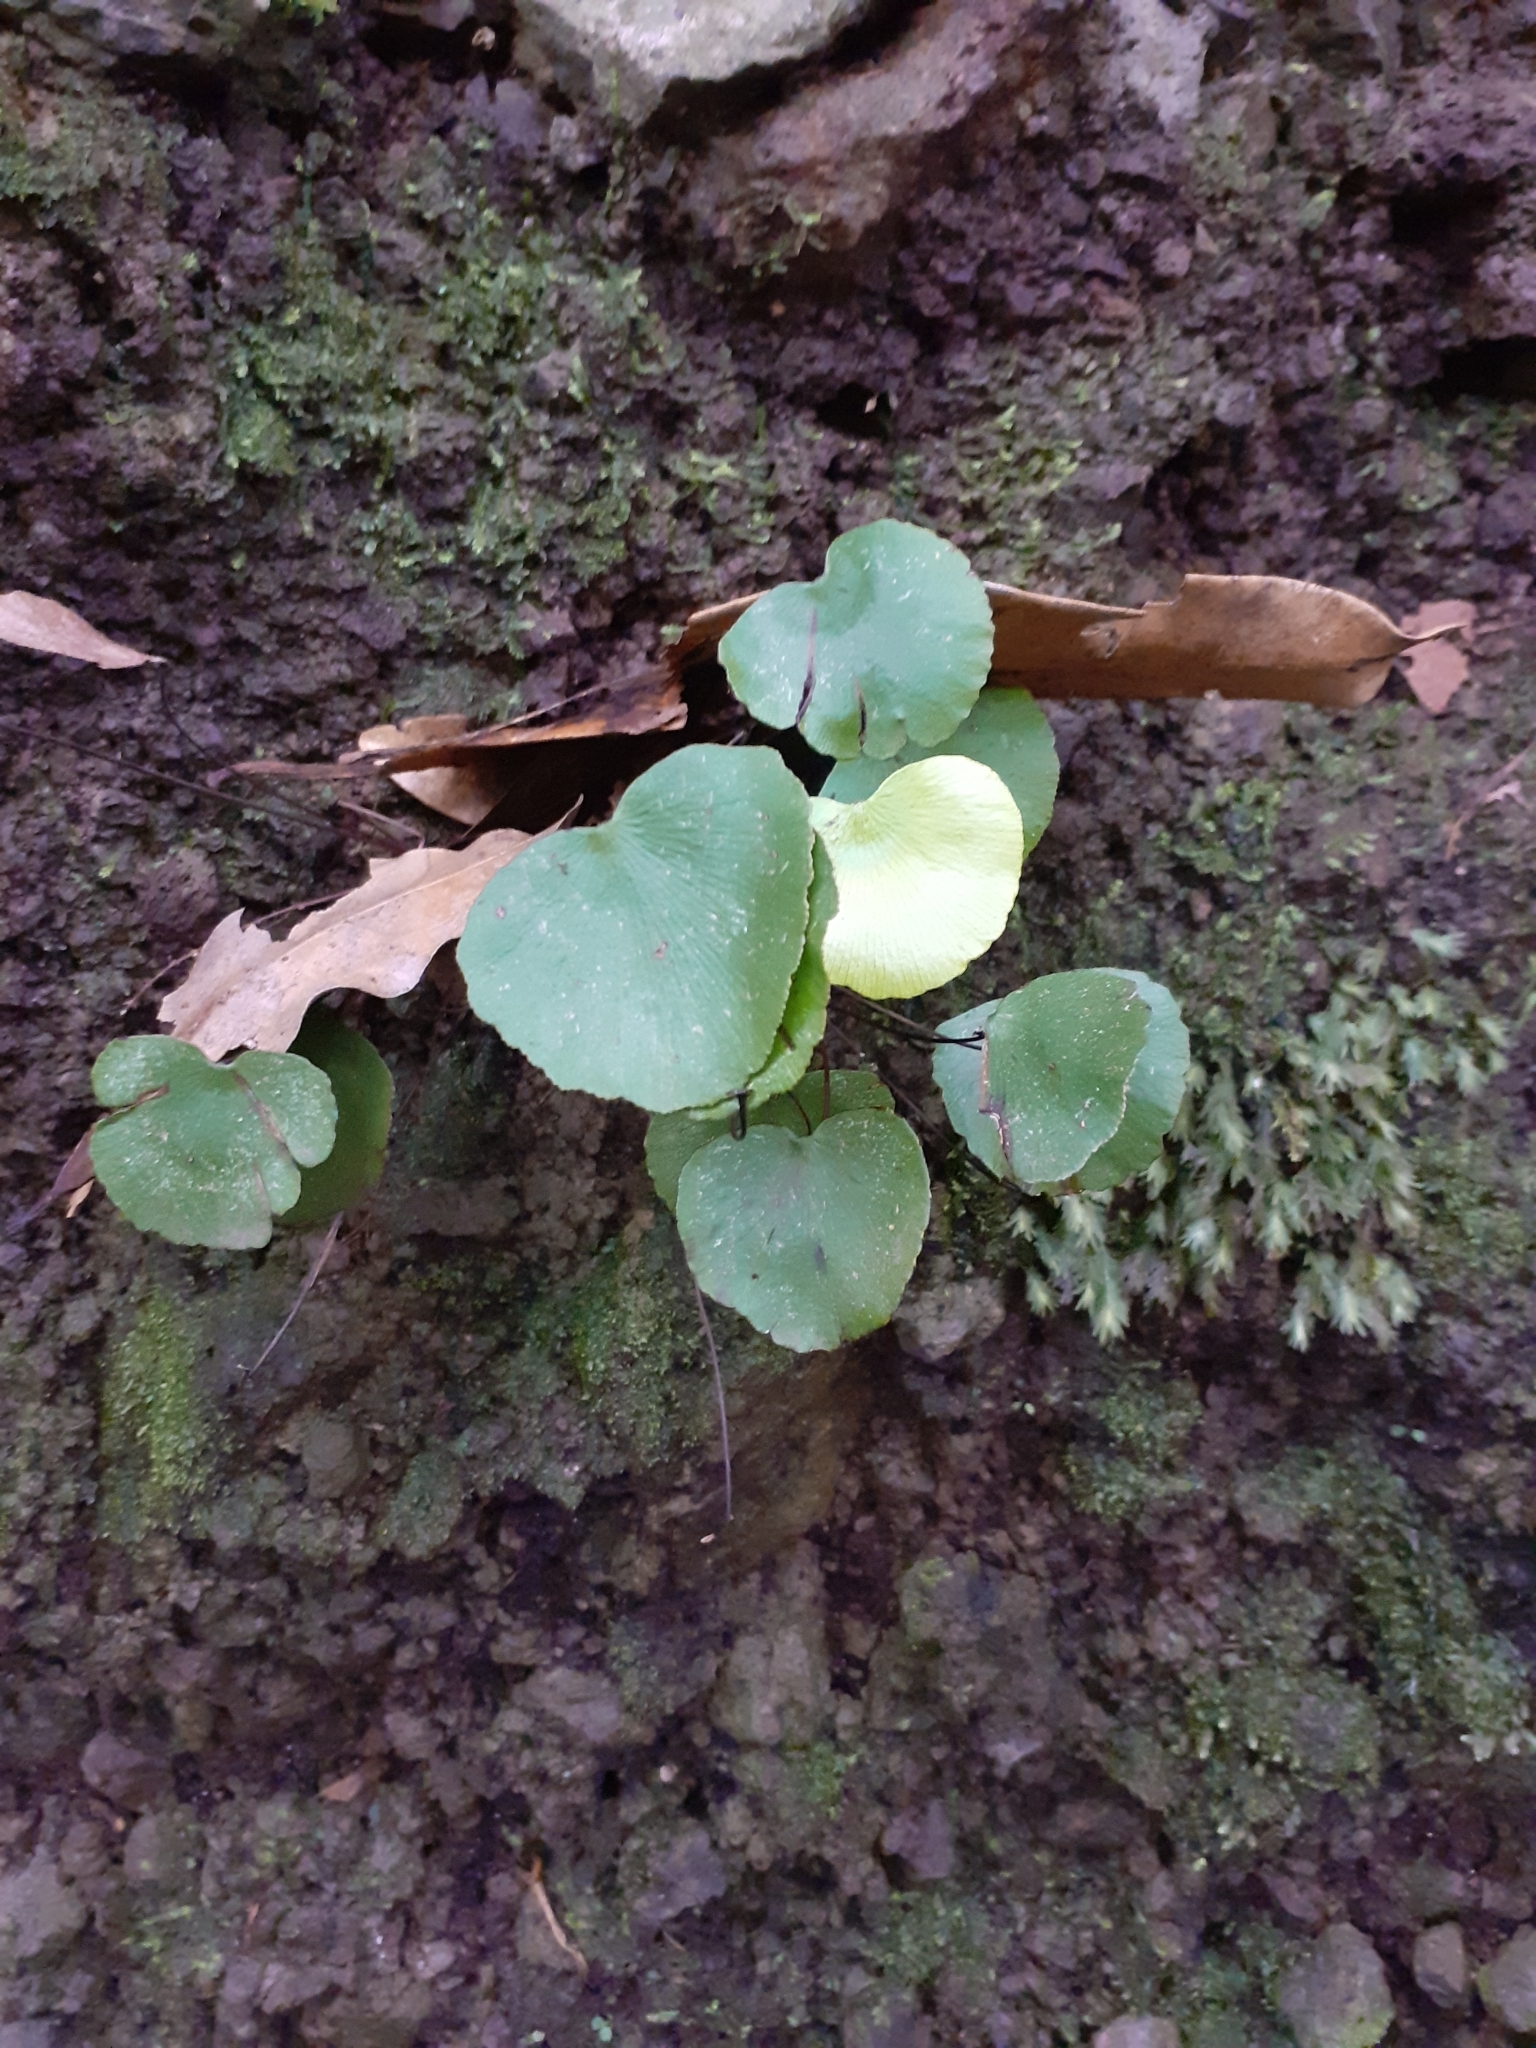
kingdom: Plantae
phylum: Tracheophyta
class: Polypodiopsida
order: Polypodiales
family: Pteridaceae
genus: Adiantum
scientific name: Adiantum reniforme
